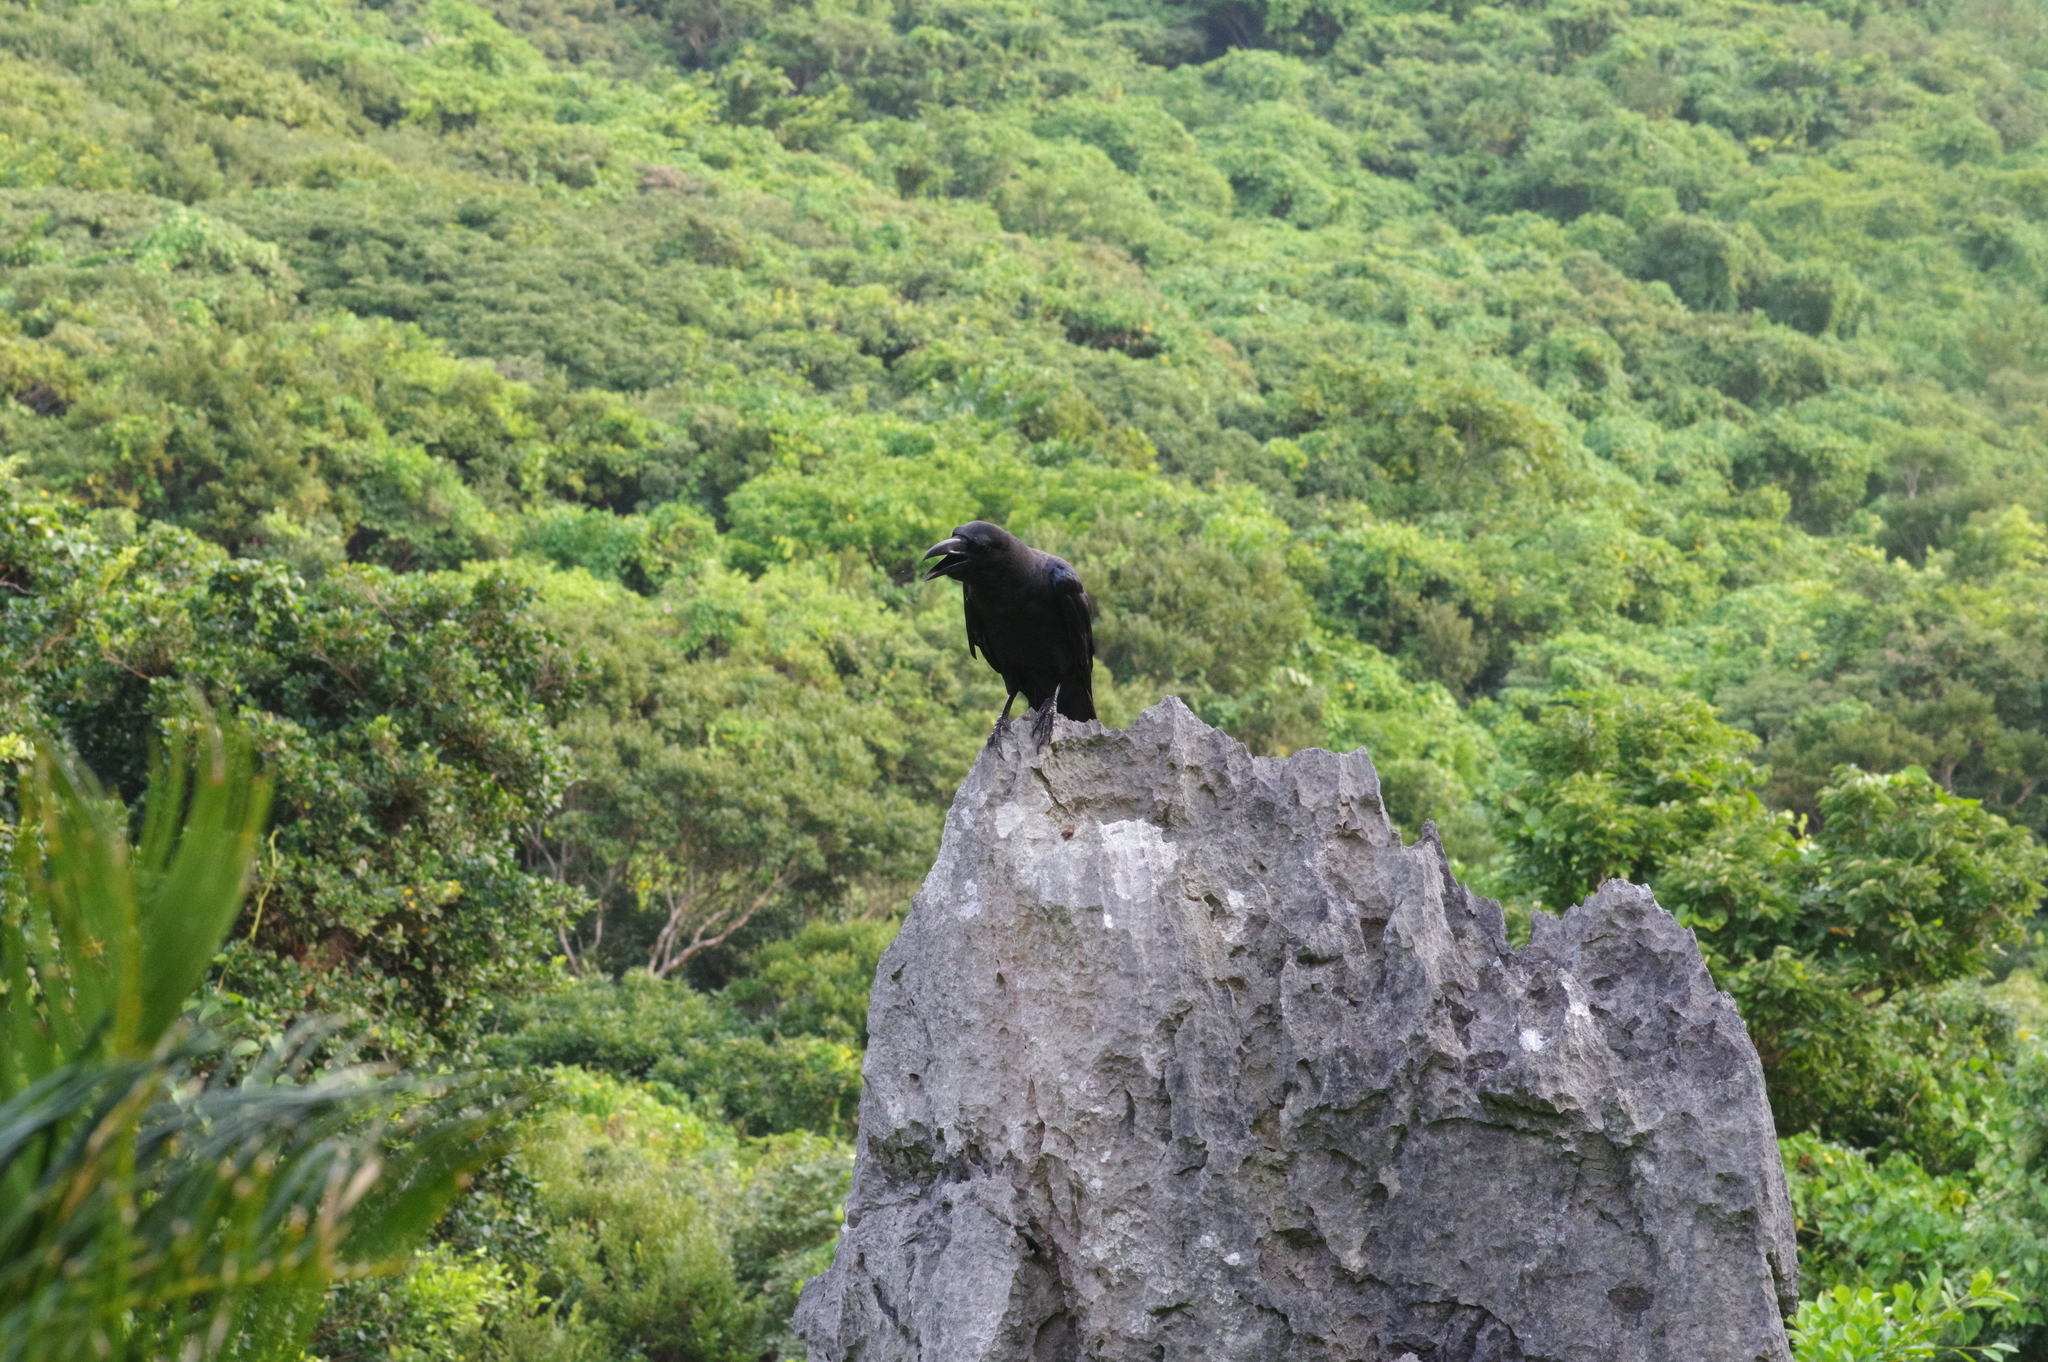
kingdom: Animalia
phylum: Chordata
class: Aves
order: Passeriformes
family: Corvidae
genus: Corvus
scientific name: Corvus macrorhynchos
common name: Large-billed crow
